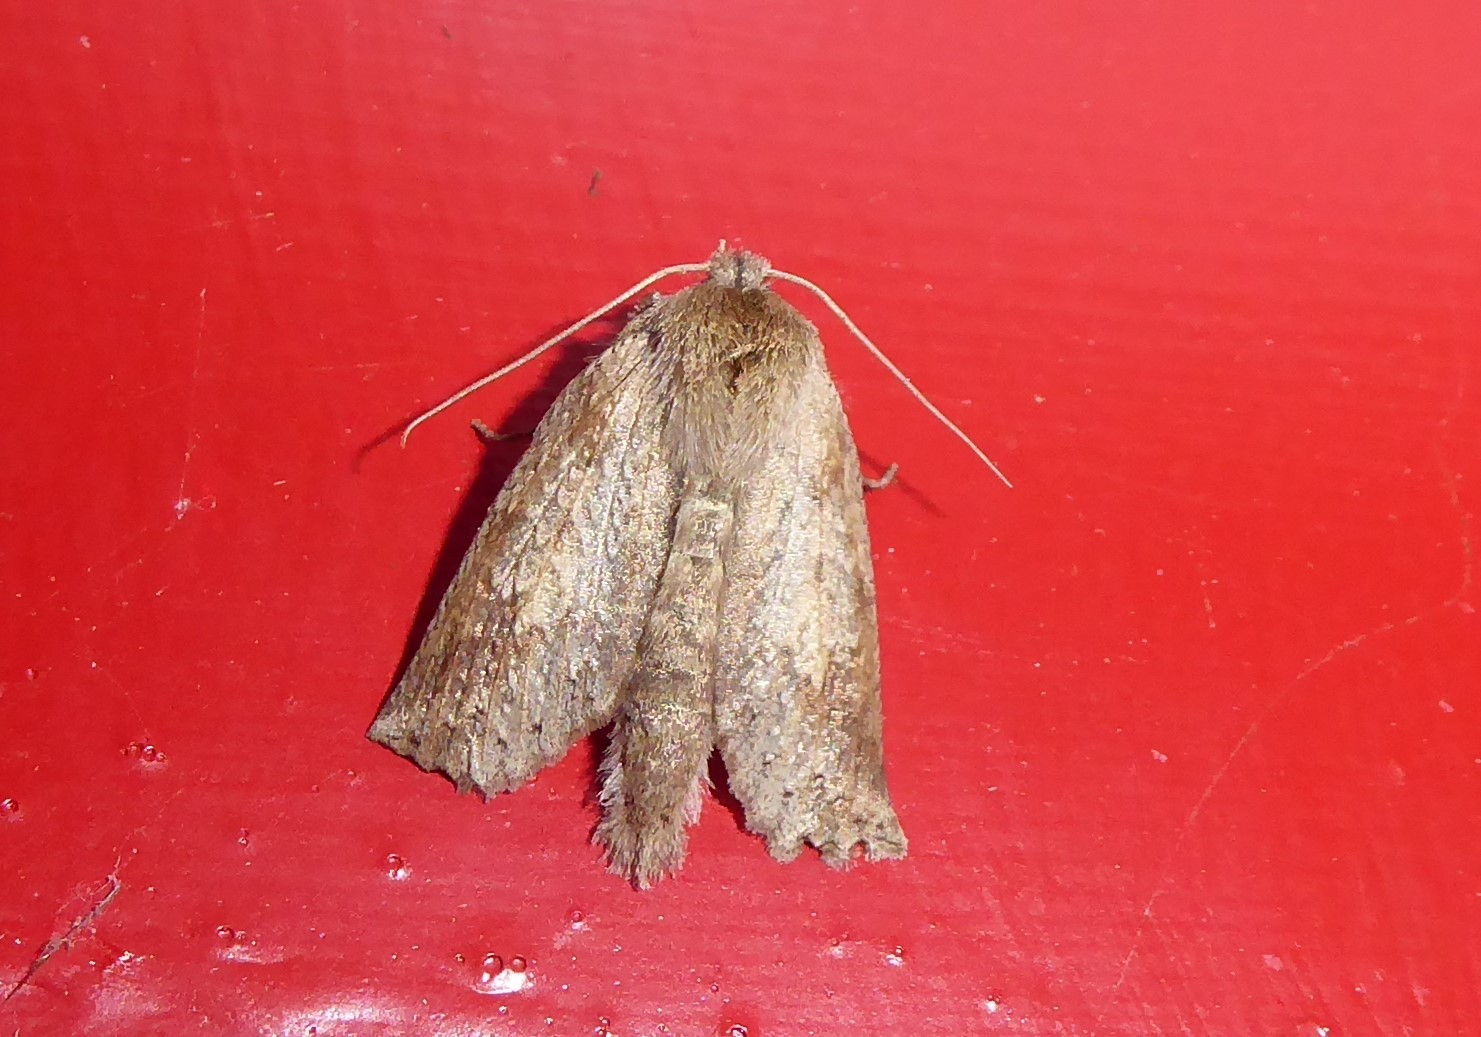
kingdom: Animalia
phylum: Arthropoda
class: Insecta
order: Lepidoptera
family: Geometridae
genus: Declana
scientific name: Declana leptomera
